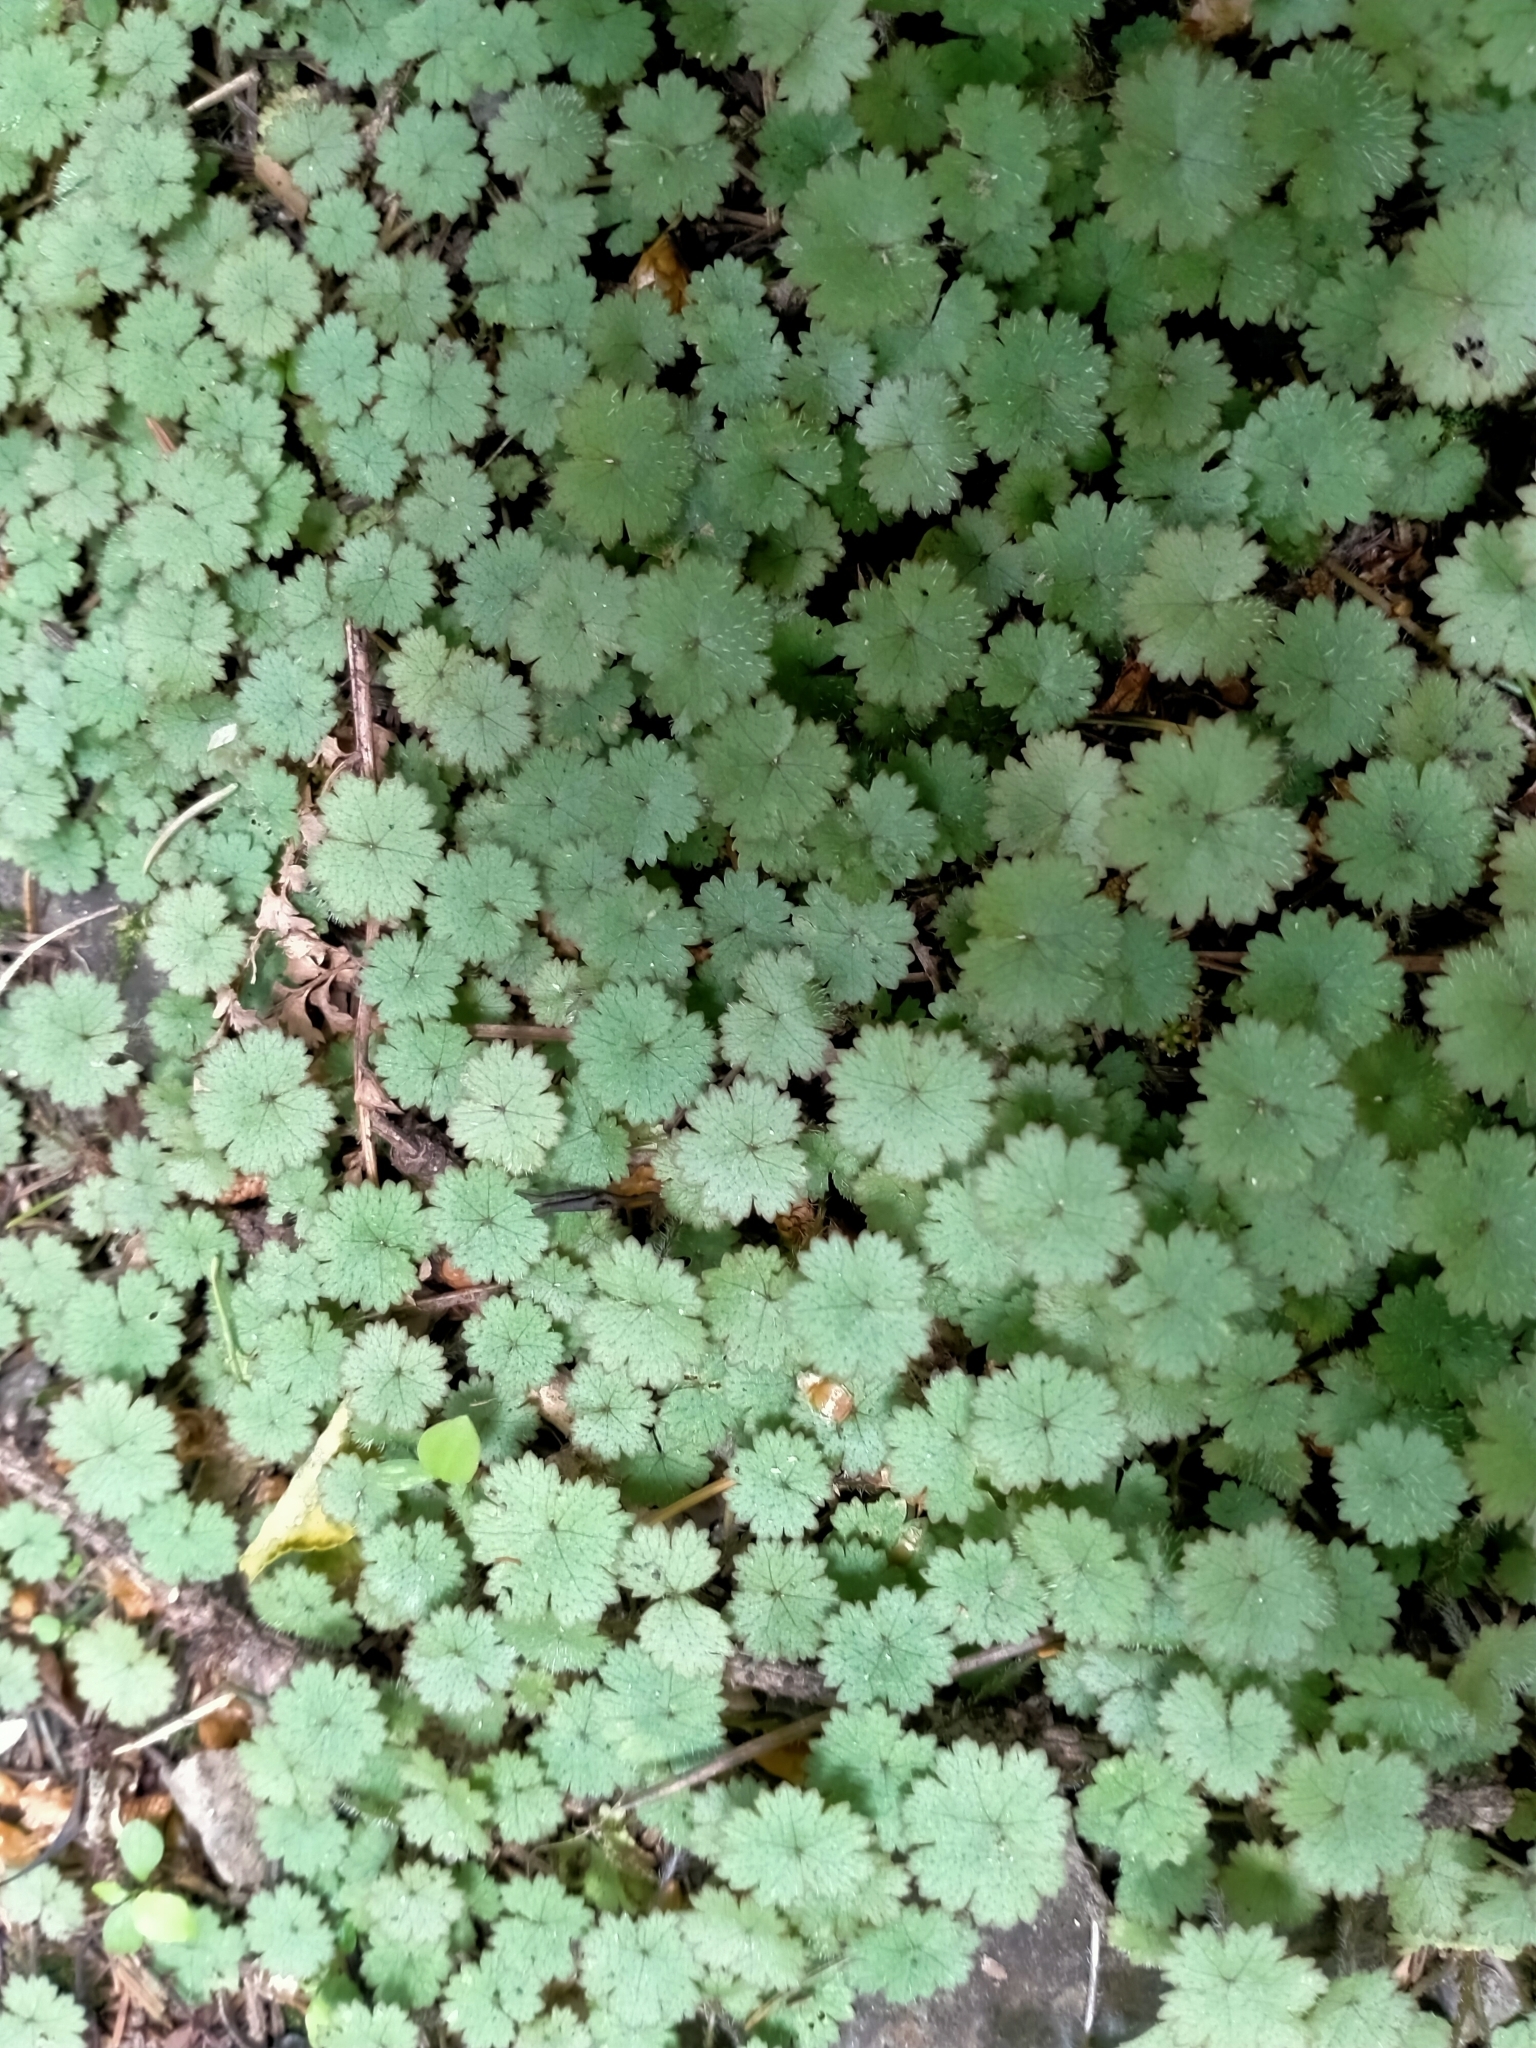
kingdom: Plantae
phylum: Tracheophyta
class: Magnoliopsida
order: Apiales
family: Araliaceae
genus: Hydrocotyle
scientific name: Hydrocotyle moschata
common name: Hairy pennywort
